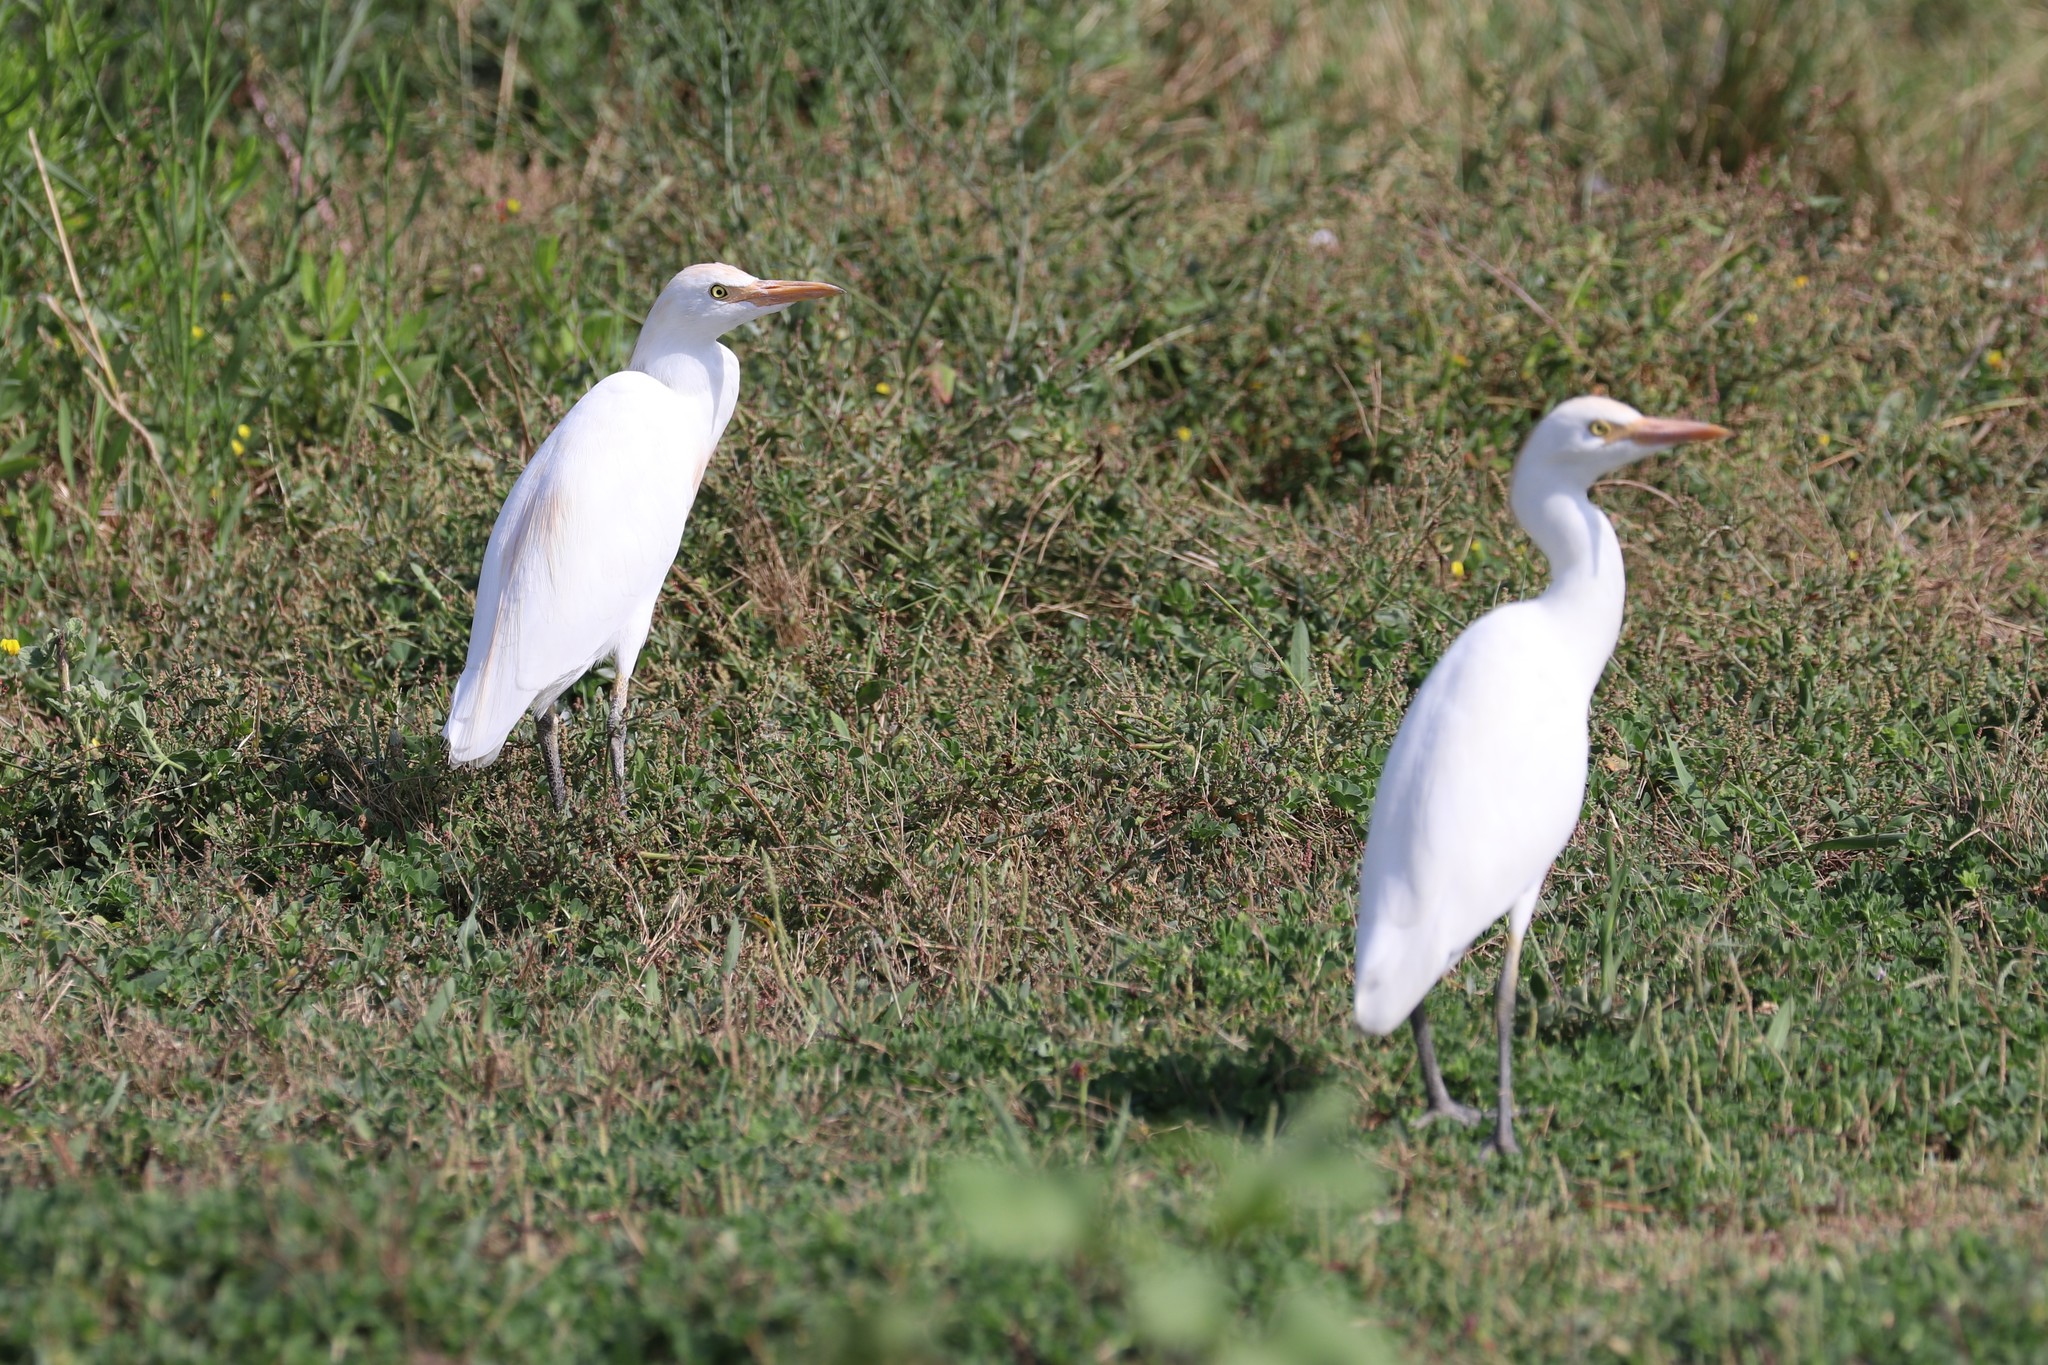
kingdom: Animalia
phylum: Chordata
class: Aves
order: Pelecaniformes
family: Ardeidae
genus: Bubulcus
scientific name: Bubulcus ibis
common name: Cattle egret
